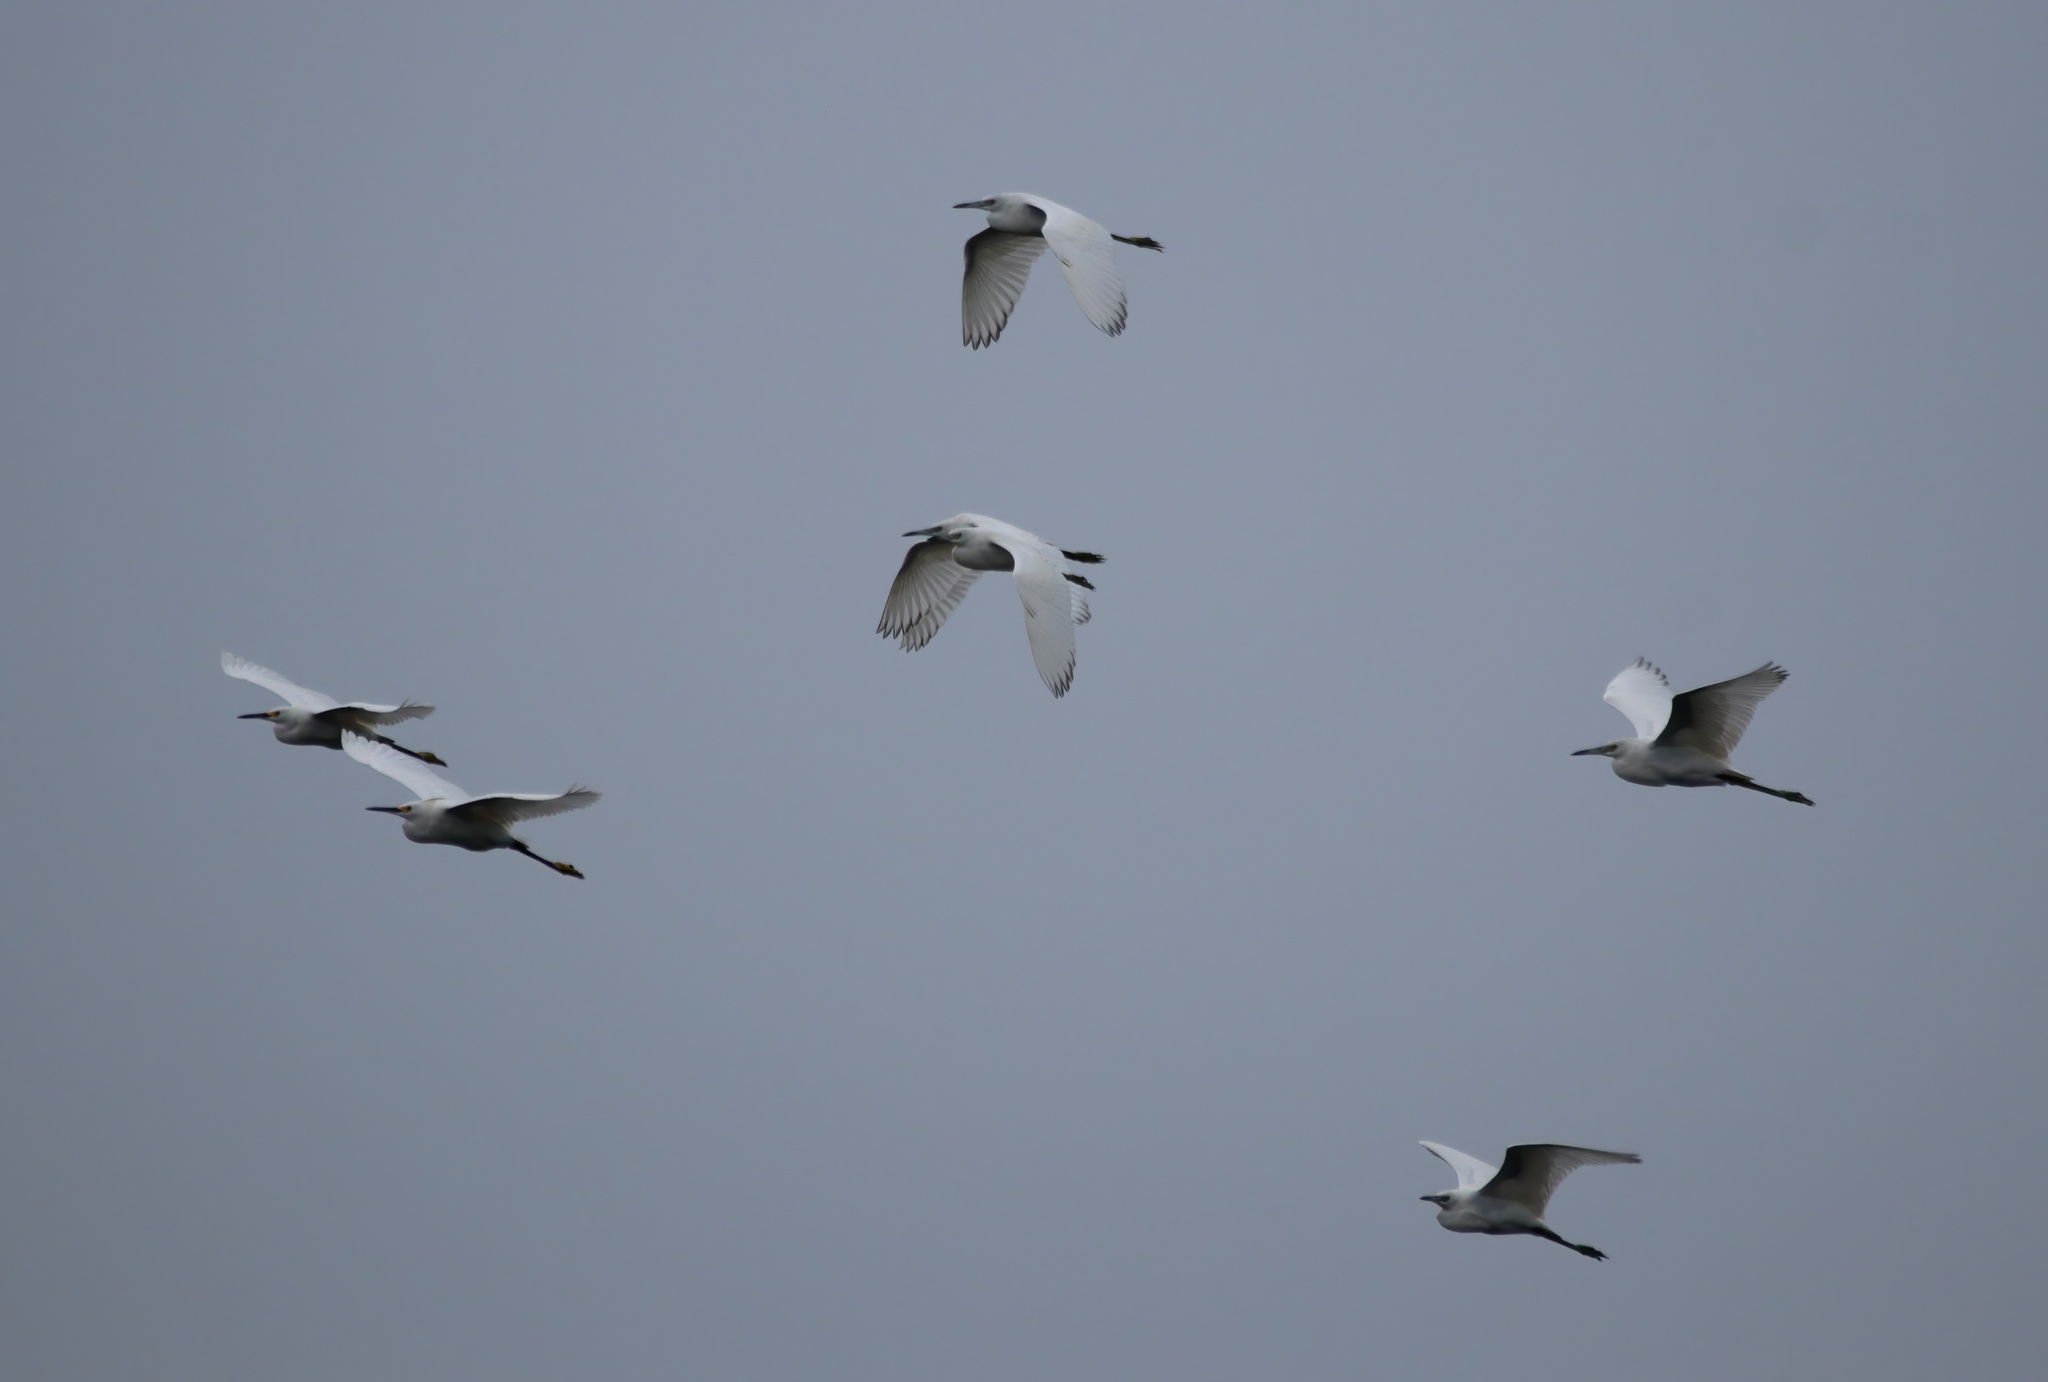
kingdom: Animalia
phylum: Chordata
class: Aves
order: Pelecaniformes
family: Ardeidae
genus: Egretta
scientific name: Egretta caerulea
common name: Little blue heron
